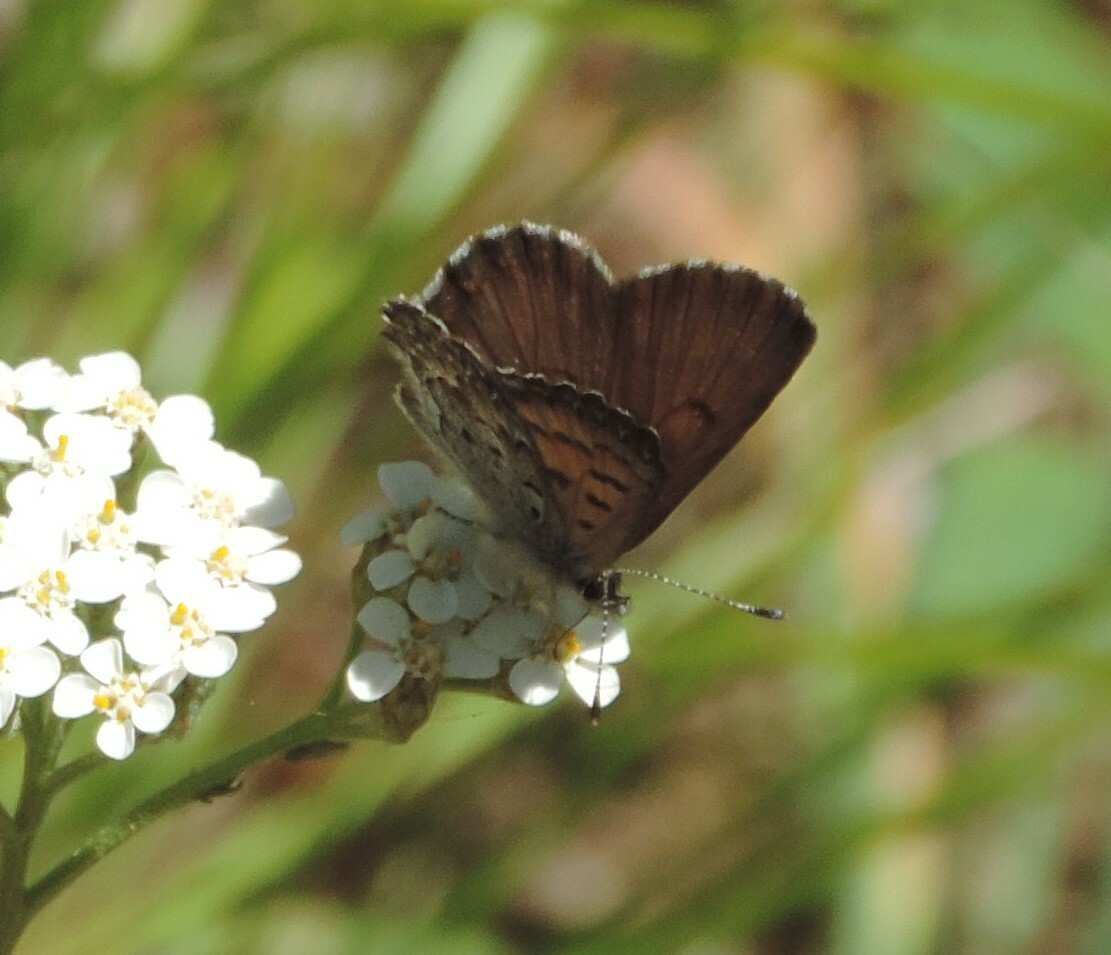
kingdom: Animalia
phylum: Arthropoda
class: Insecta
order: Lepidoptera
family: Lycaenidae
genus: Tharsalea
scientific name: Tharsalea mariposa
